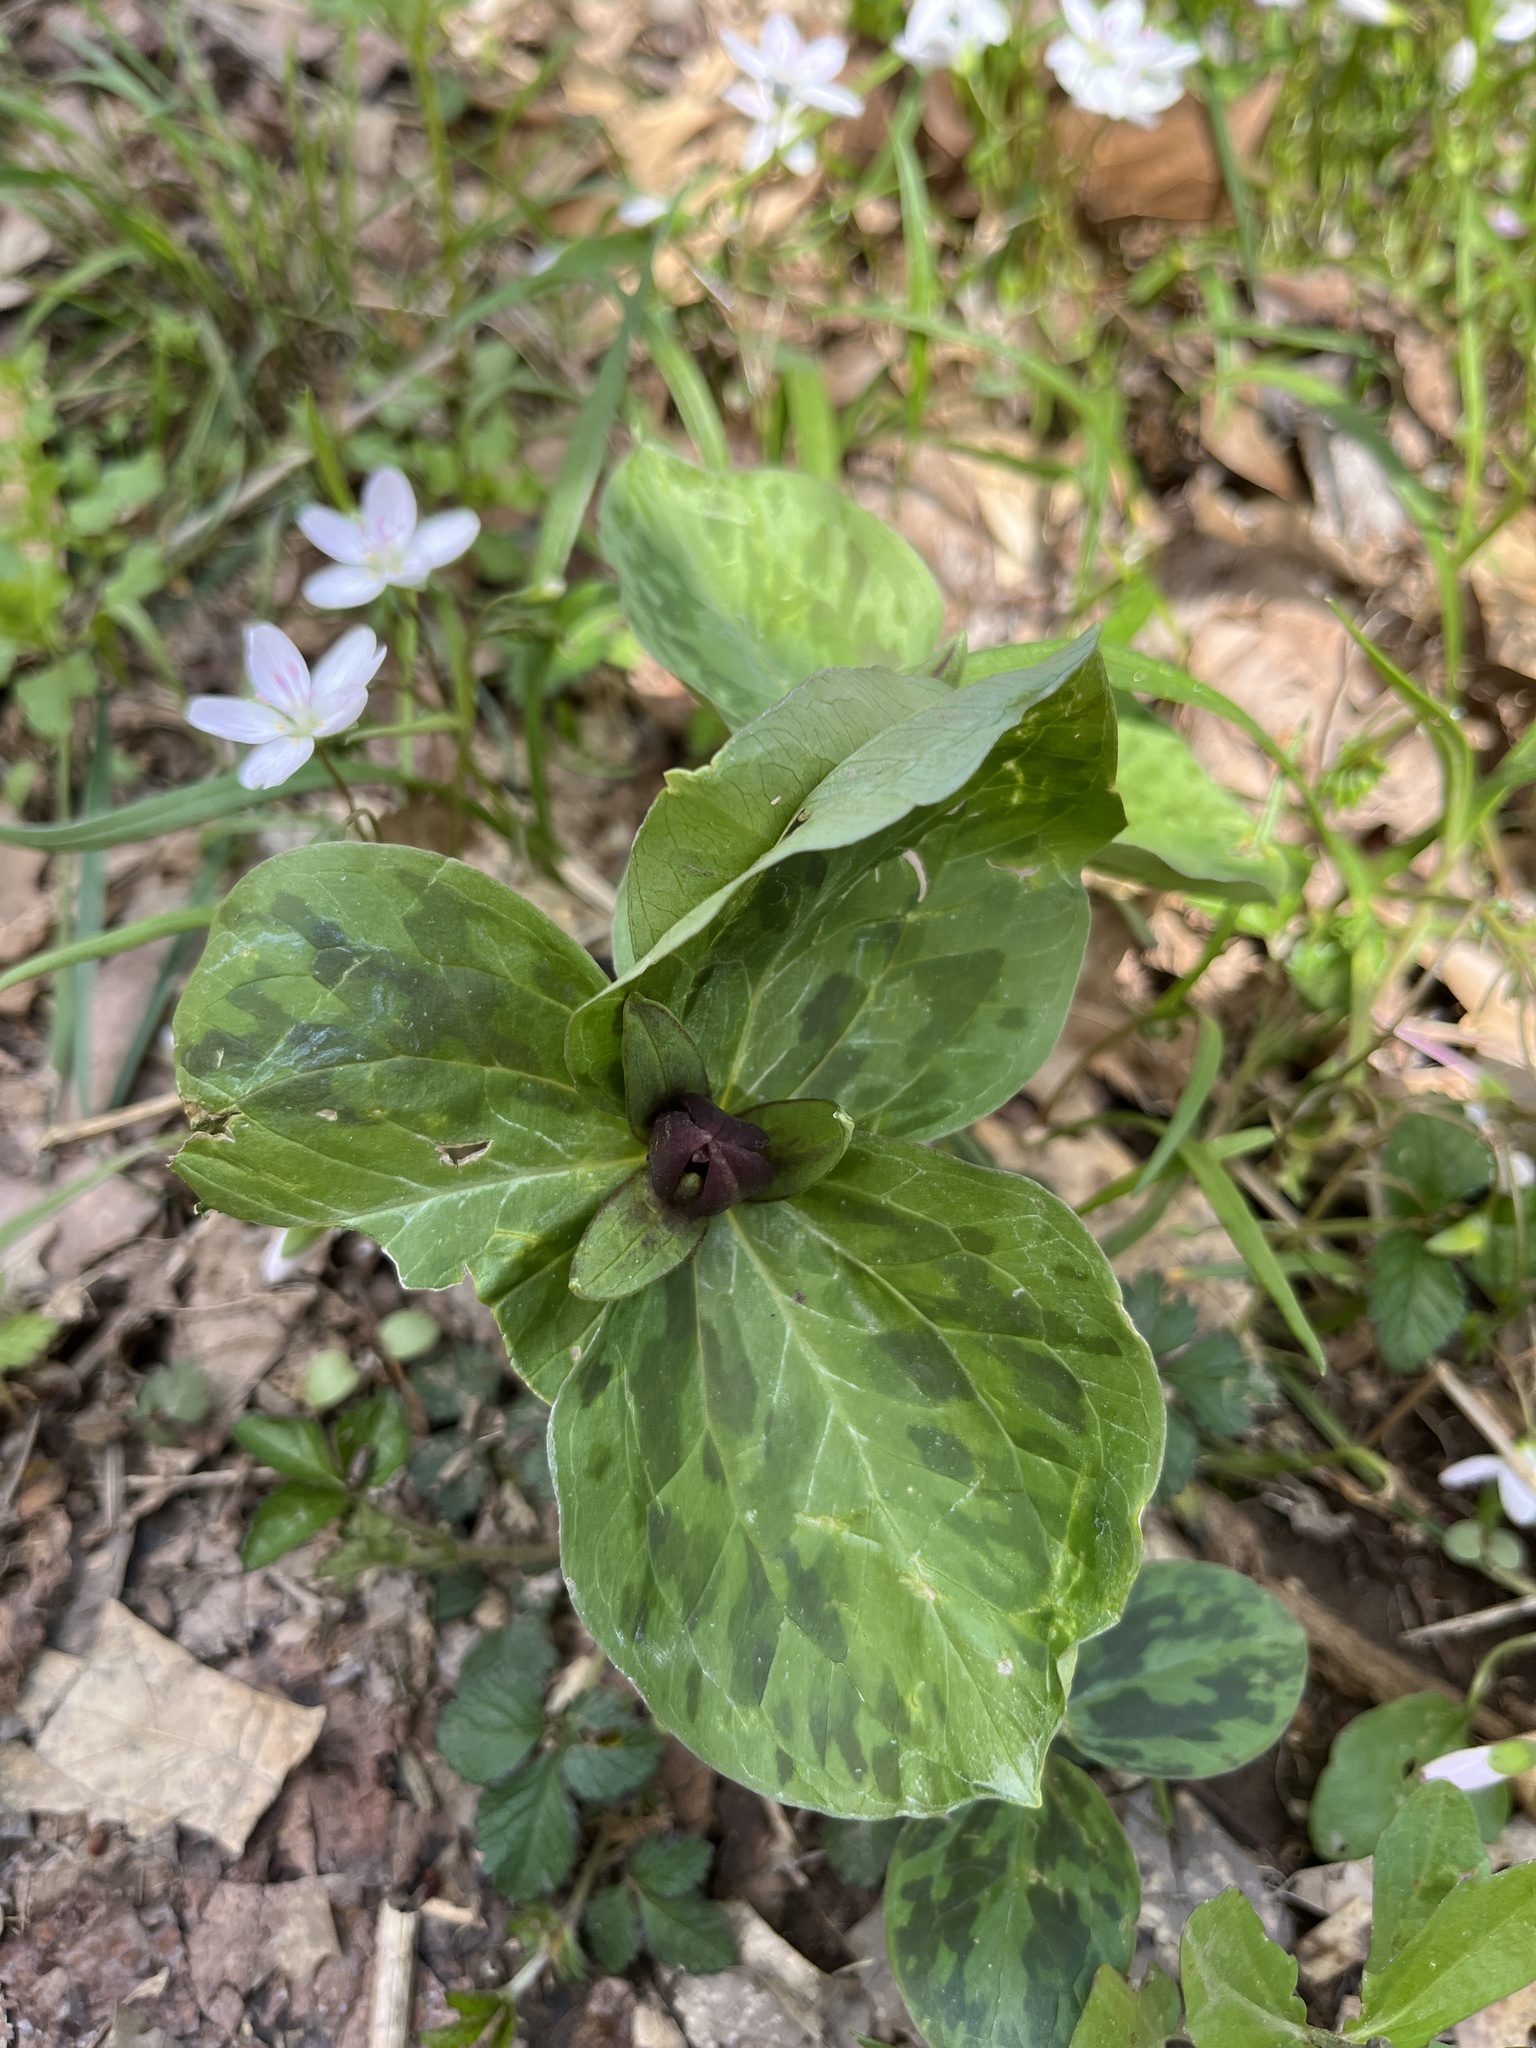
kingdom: Plantae
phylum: Tracheophyta
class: Liliopsida
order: Liliales
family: Melanthiaceae
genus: Trillium
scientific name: Trillium sessile
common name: Sessile trillium
